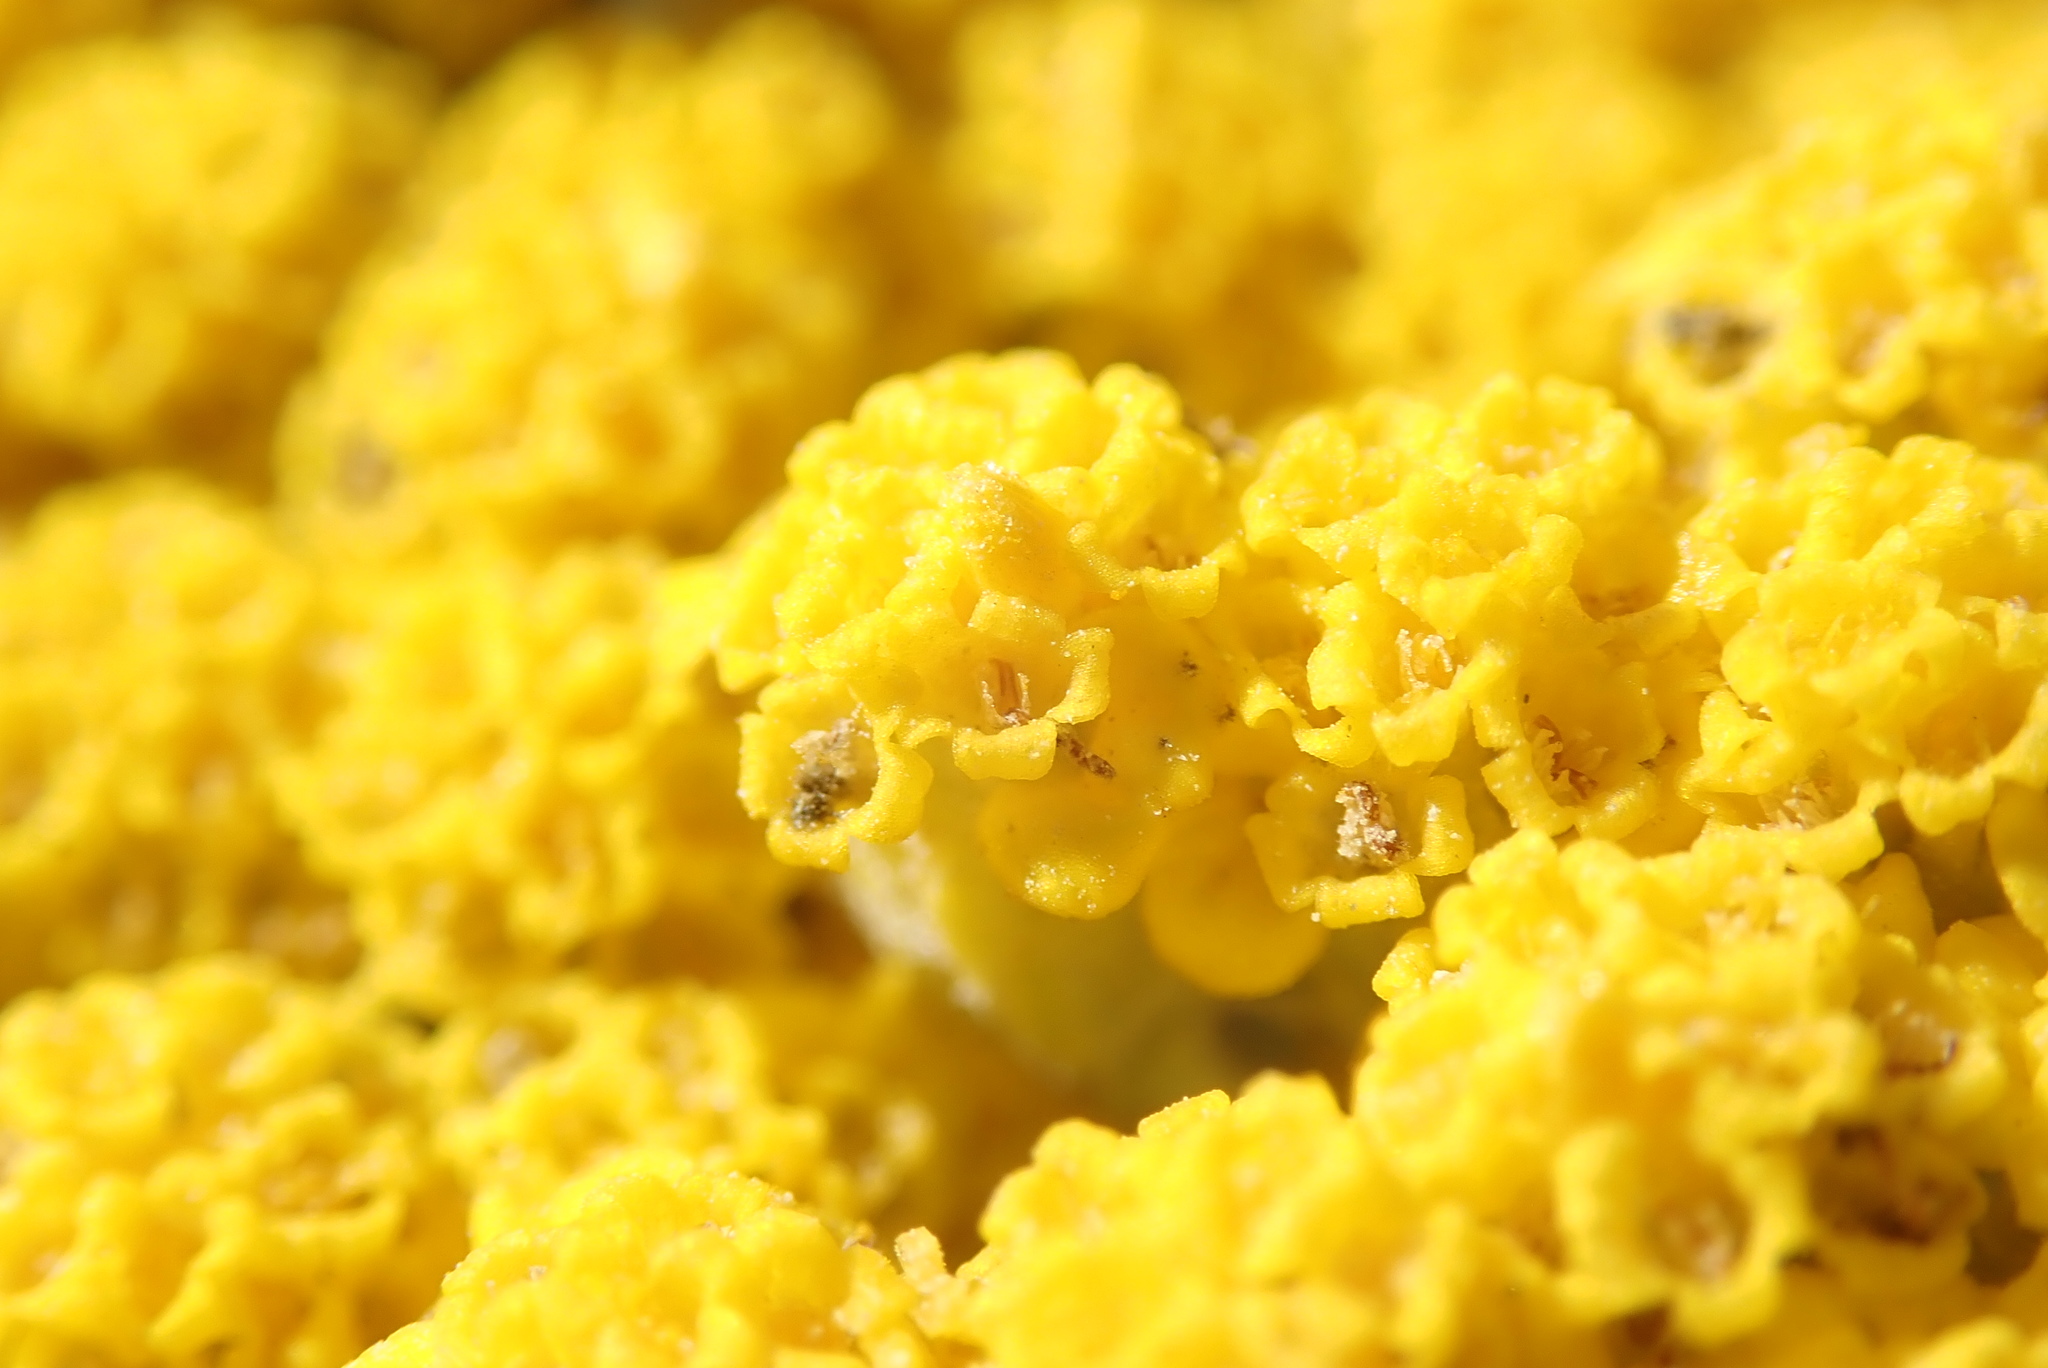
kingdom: Plantae
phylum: Tracheophyta
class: Magnoliopsida
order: Asterales
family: Asteraceae
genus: Achillea
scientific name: Achillea filipendulina
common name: Fernleaf yarrow
